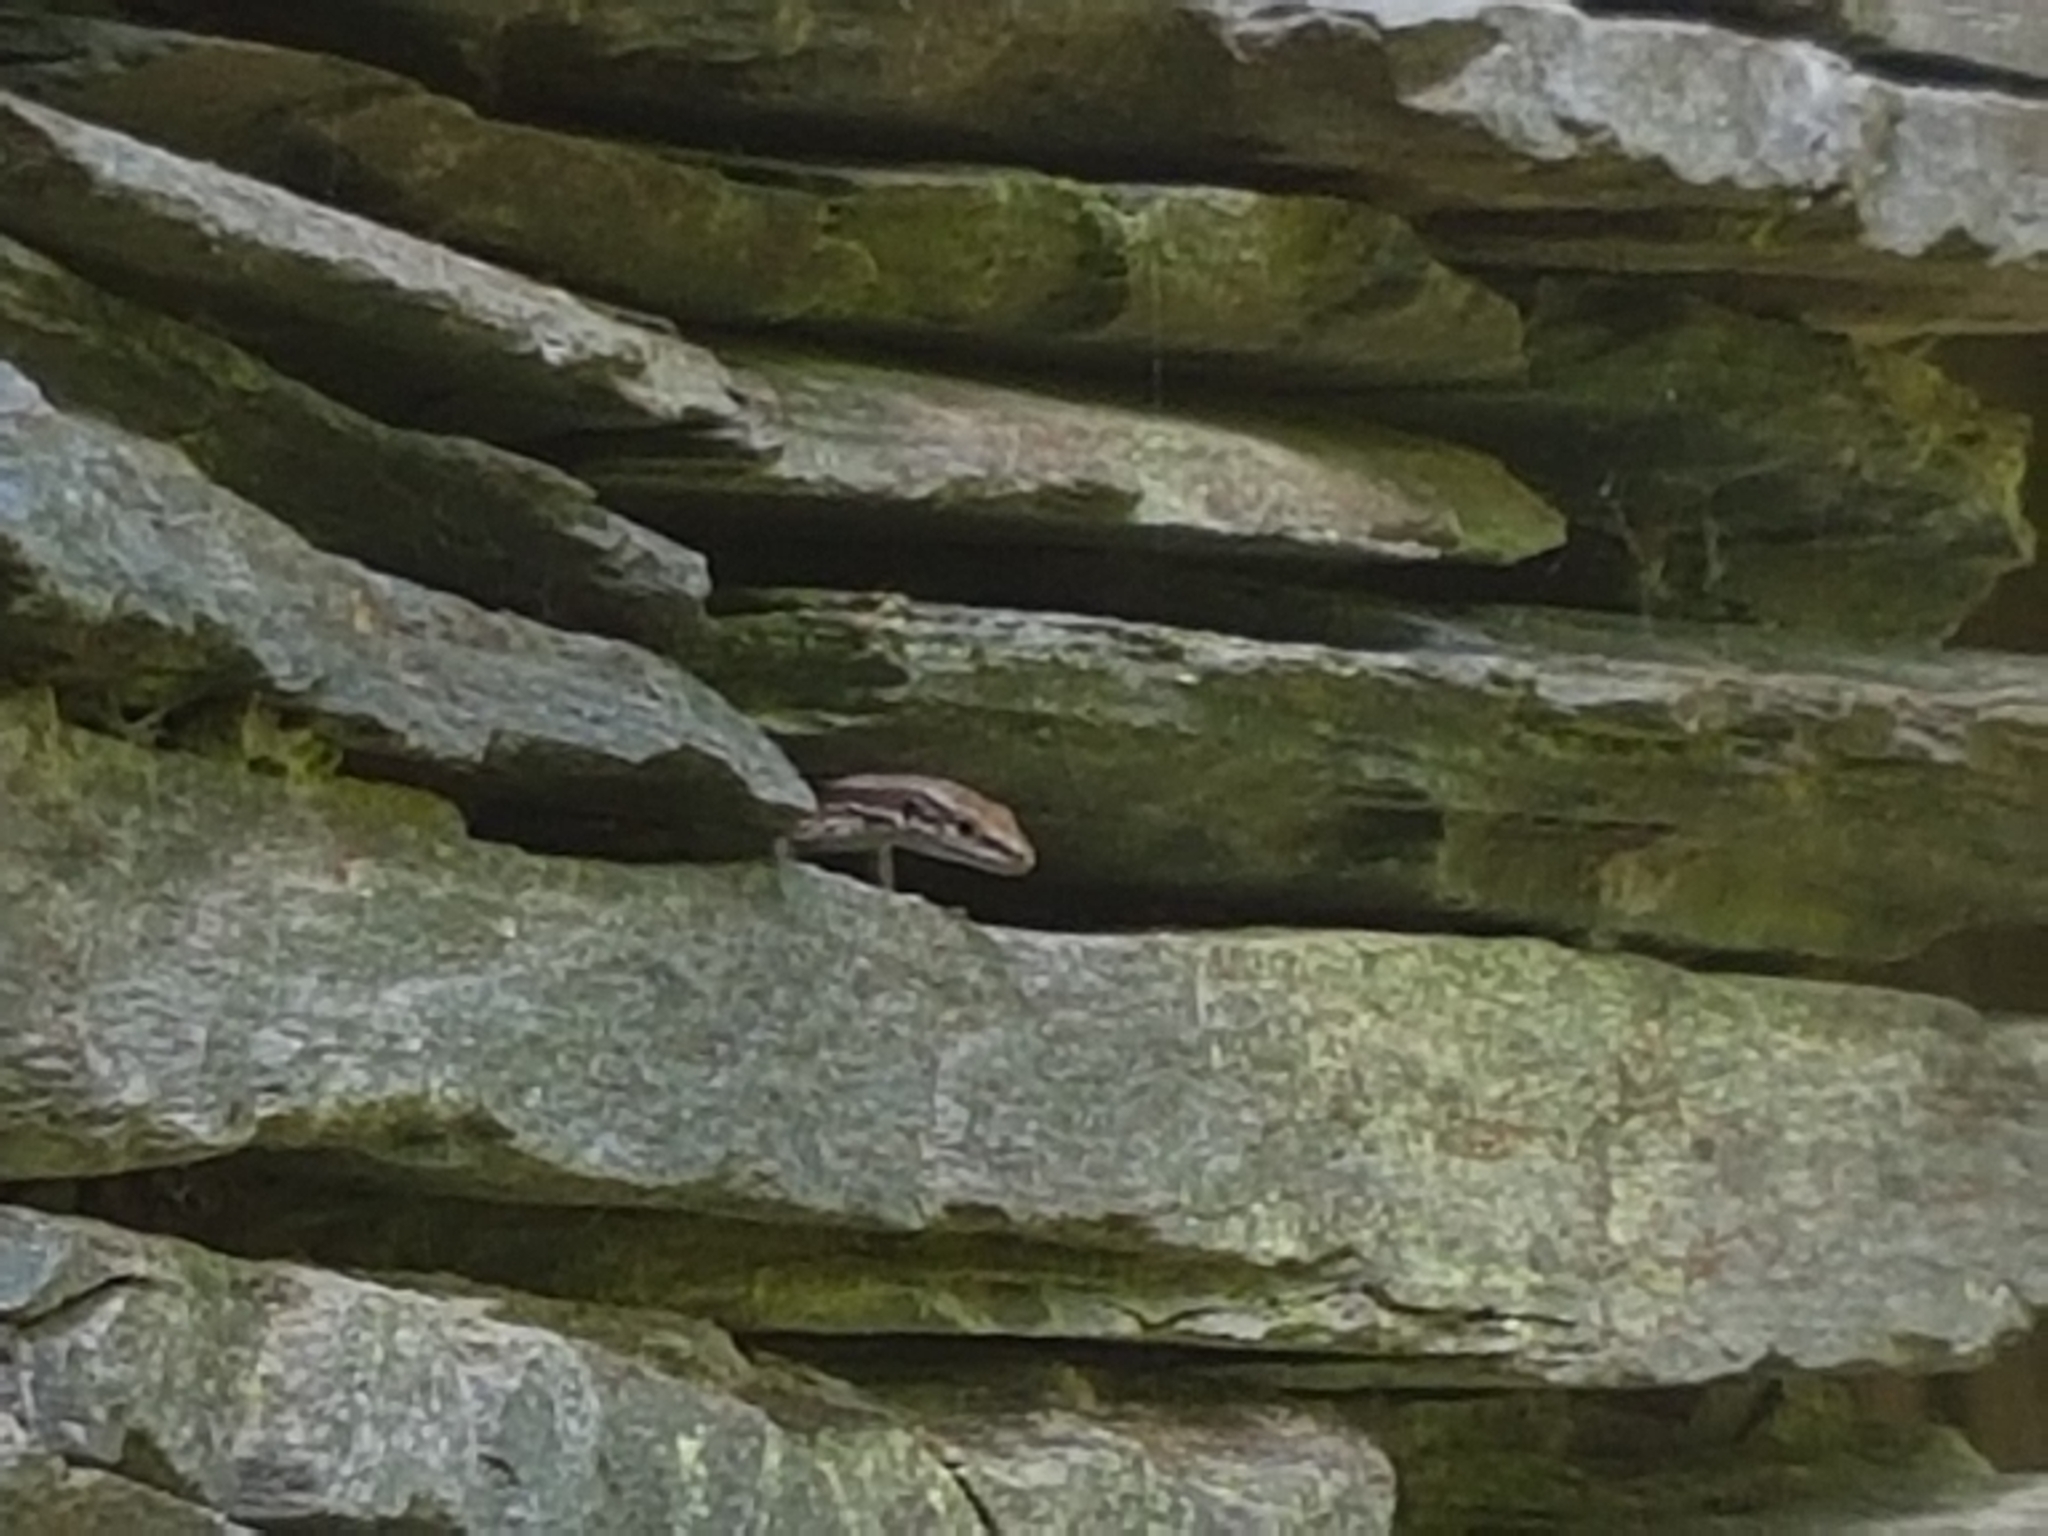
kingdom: Animalia
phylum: Chordata
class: Squamata
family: Lacertidae
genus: Iberolacerta
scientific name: Iberolacerta monticola
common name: Iberian mountain lizard
